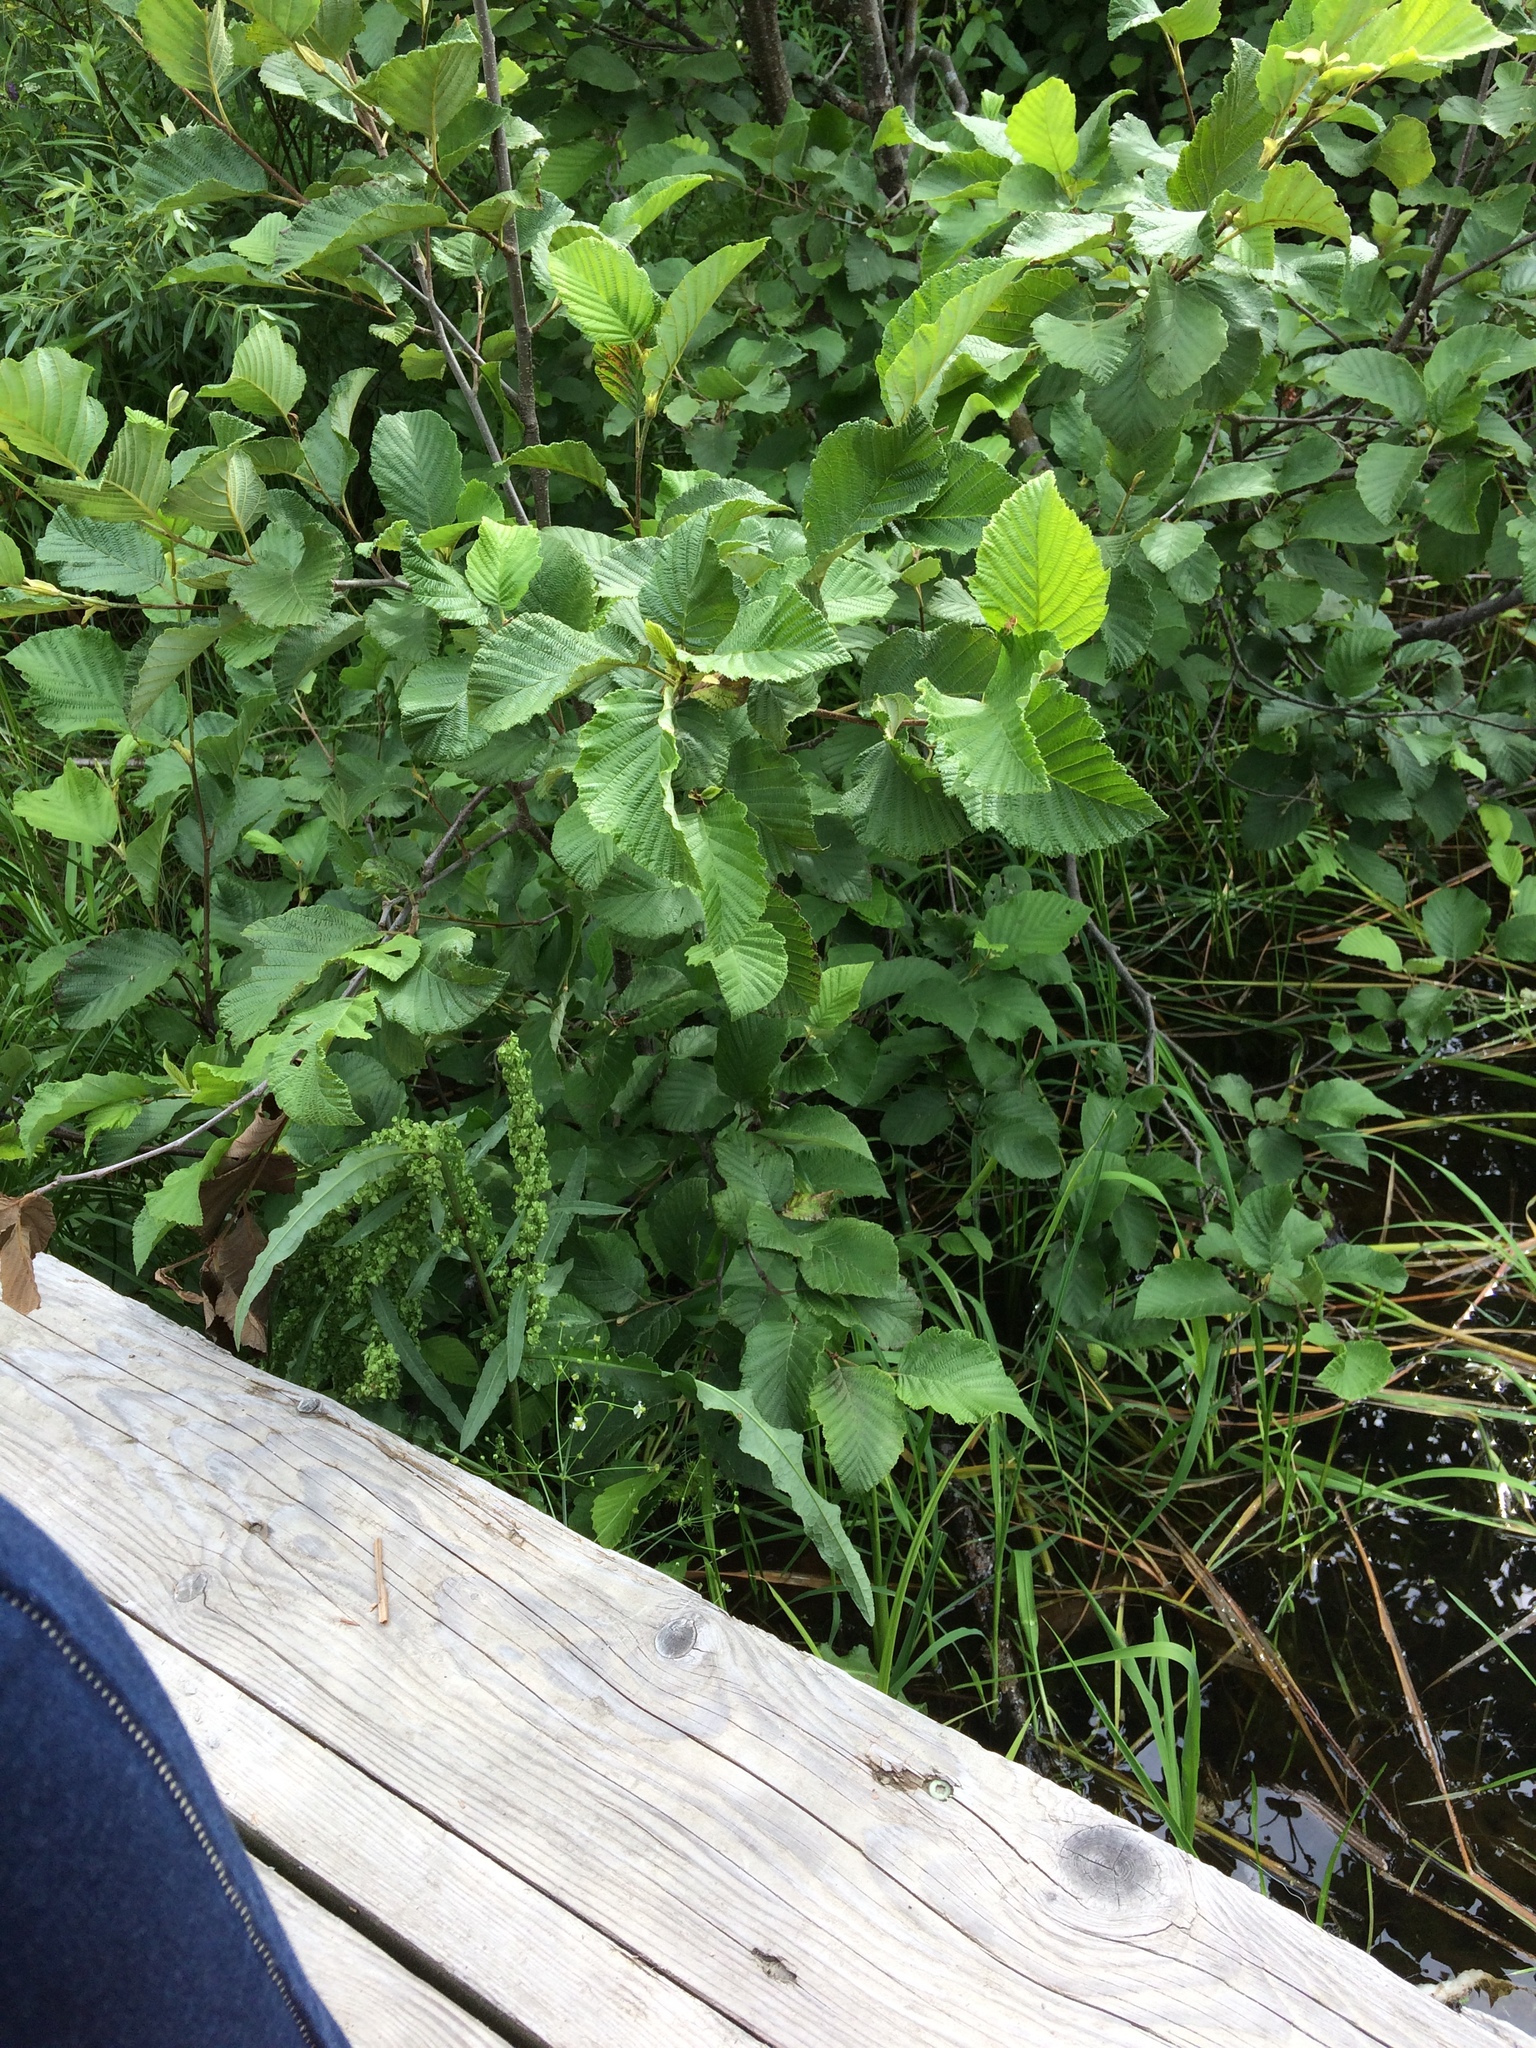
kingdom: Plantae
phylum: Tracheophyta
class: Magnoliopsida
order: Fagales
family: Betulaceae
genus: Alnus
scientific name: Alnus incana
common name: Grey alder
